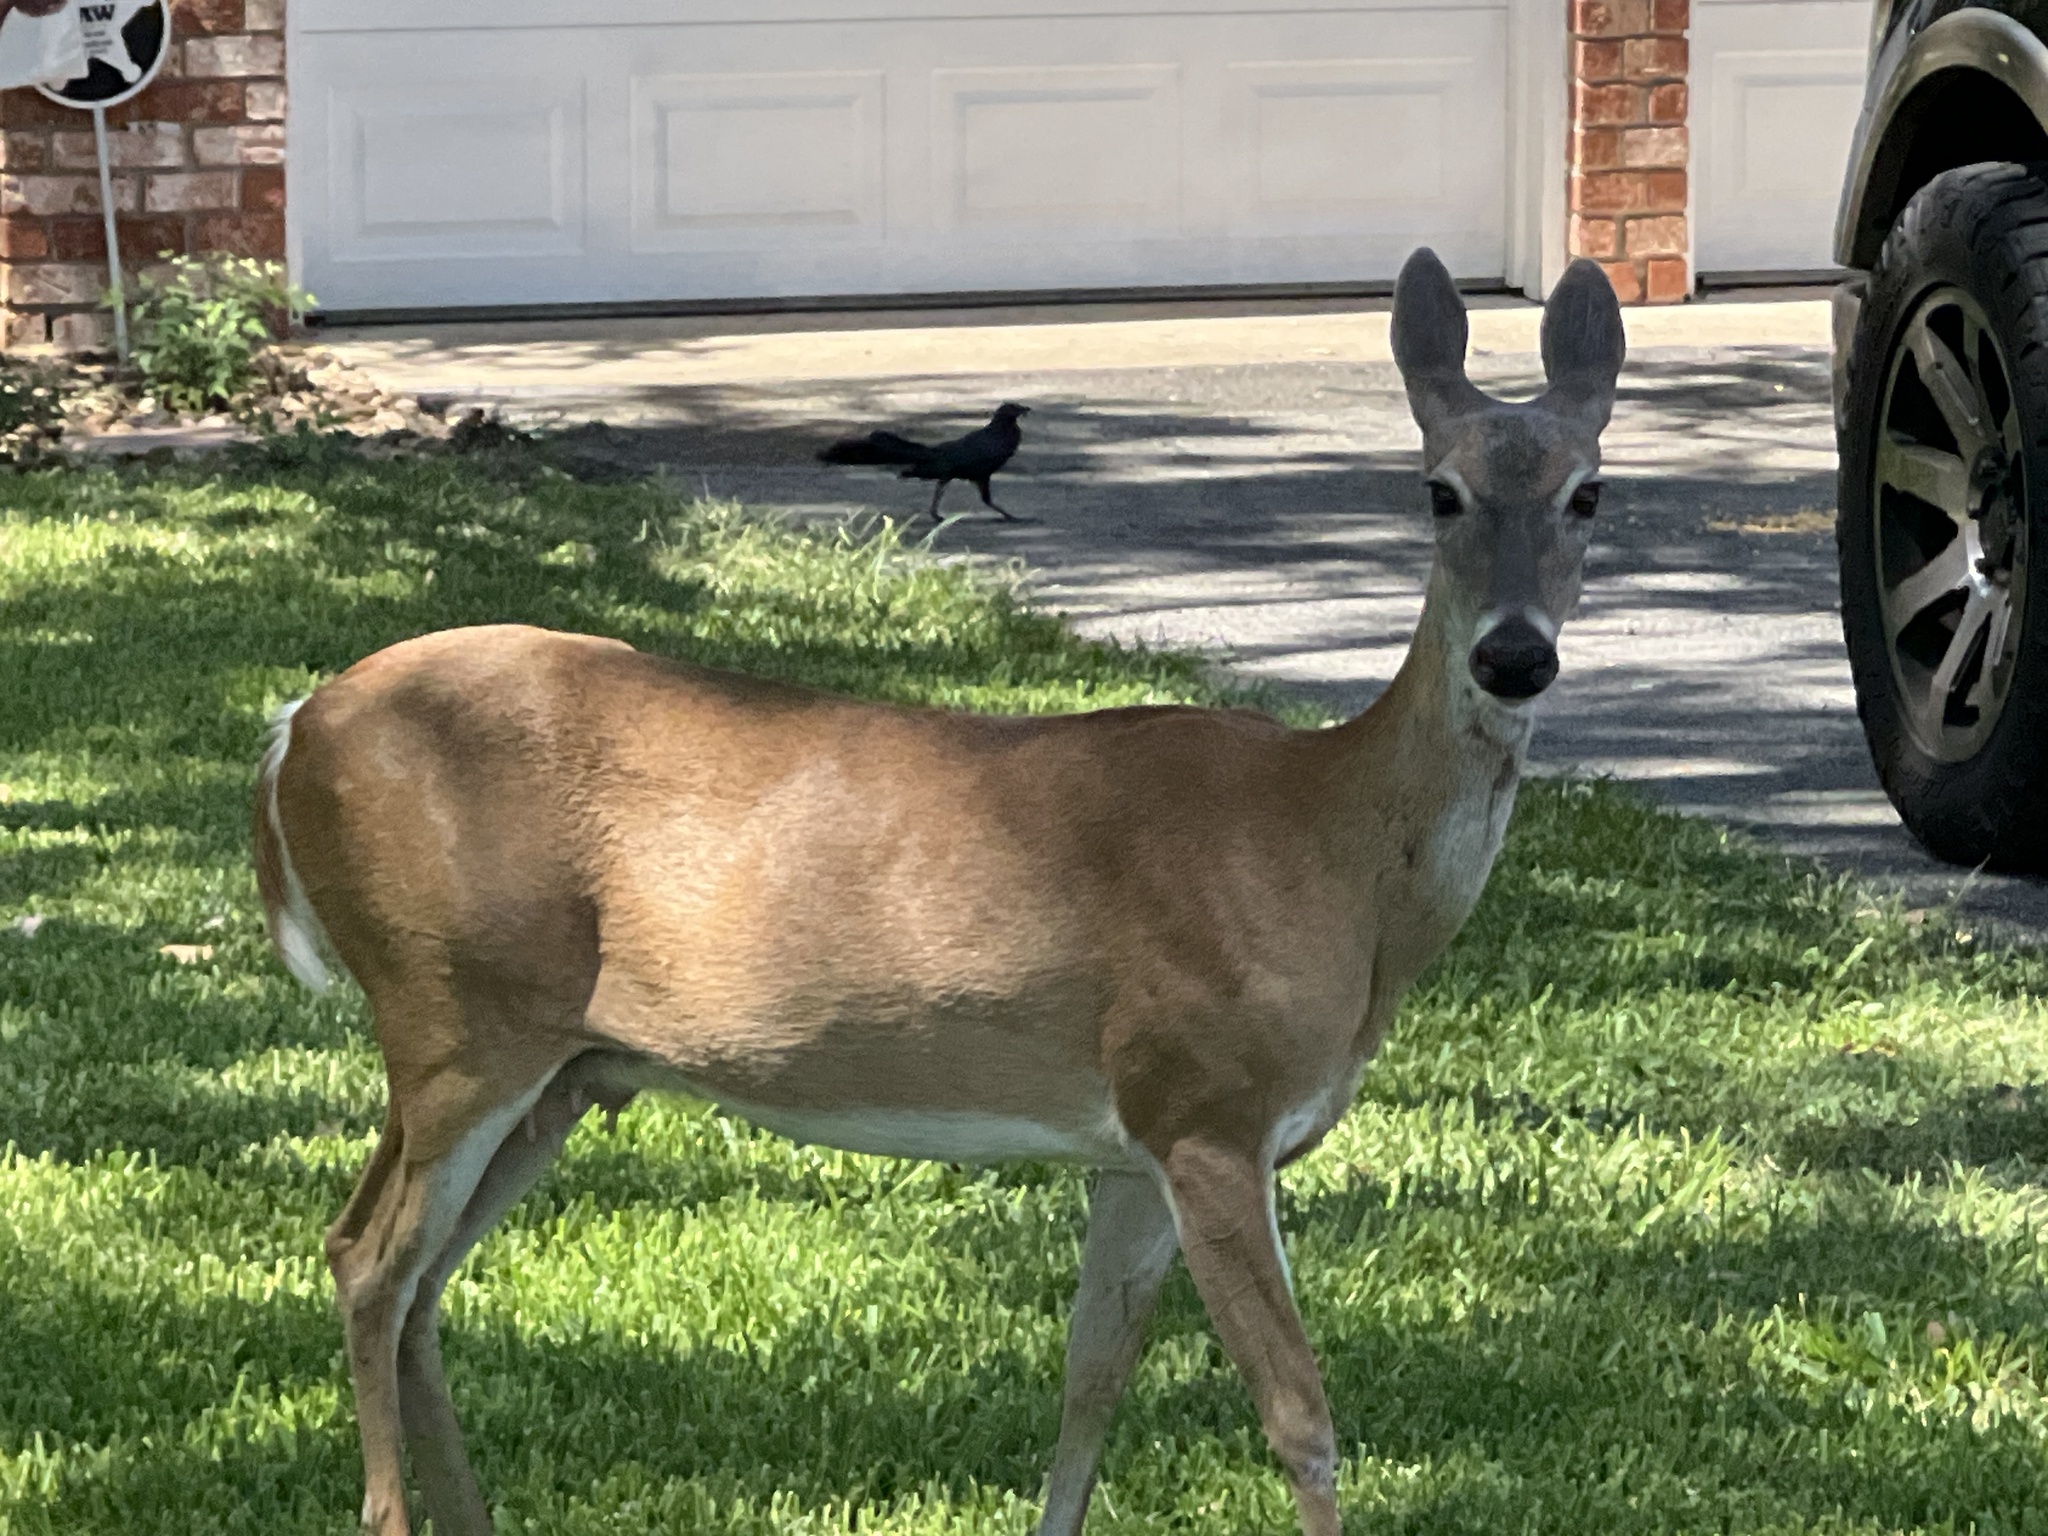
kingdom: Animalia
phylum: Chordata
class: Mammalia
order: Artiodactyla
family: Cervidae
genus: Odocoileus
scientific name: Odocoileus virginianus
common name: White-tailed deer
